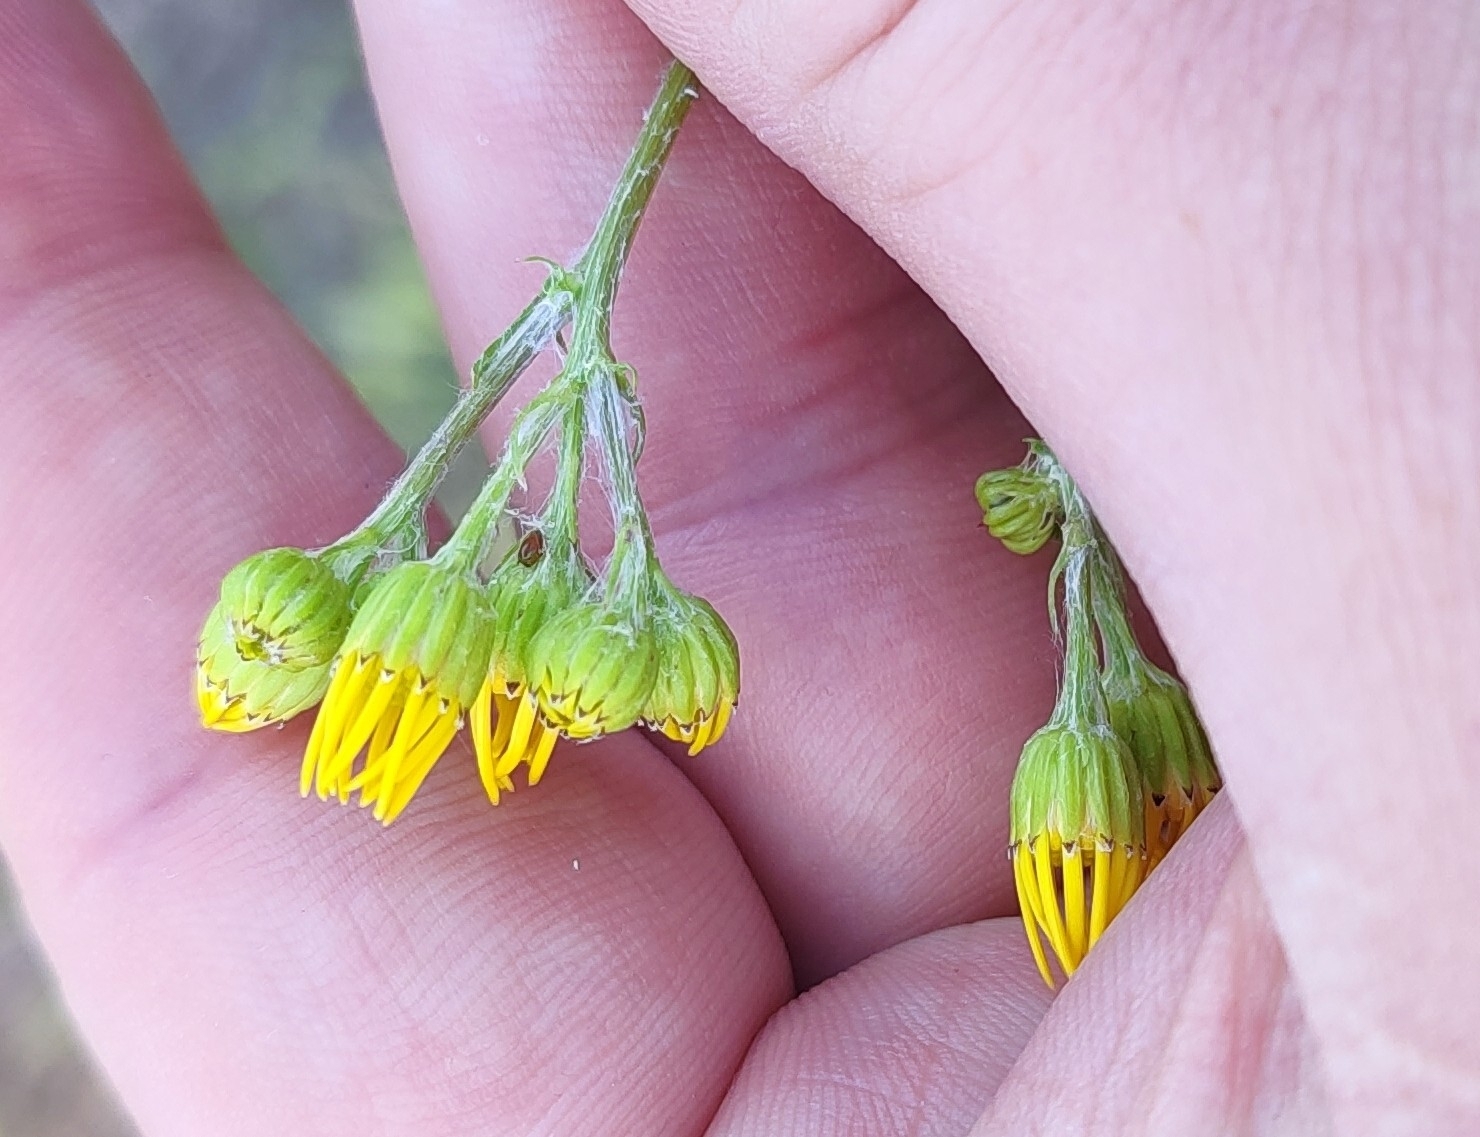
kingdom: Plantae
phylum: Tracheophyta
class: Magnoliopsida
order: Asterales
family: Asteraceae
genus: Jacobaea
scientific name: Jacobaea vulgaris
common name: Stinking willie
